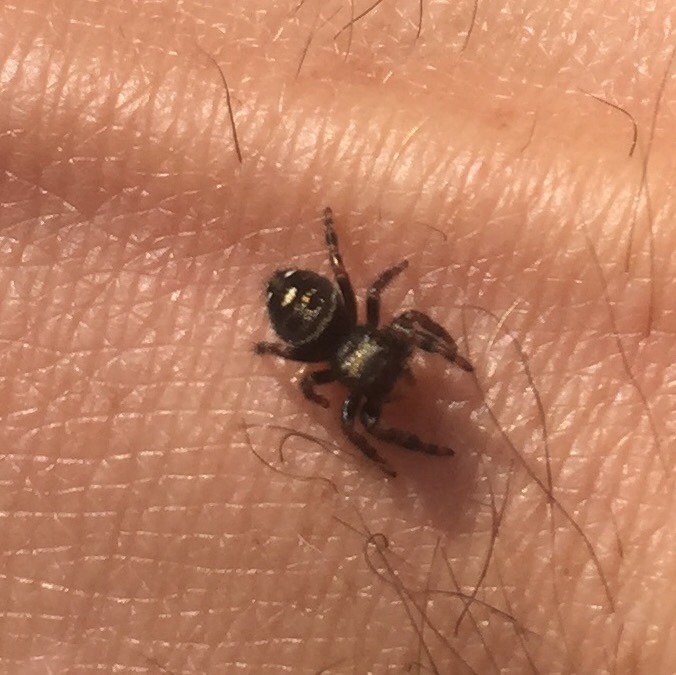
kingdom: Animalia
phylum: Arthropoda
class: Arachnida
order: Araneae
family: Salticidae
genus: Phidippus
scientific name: Phidippus audax
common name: Bold jumper
